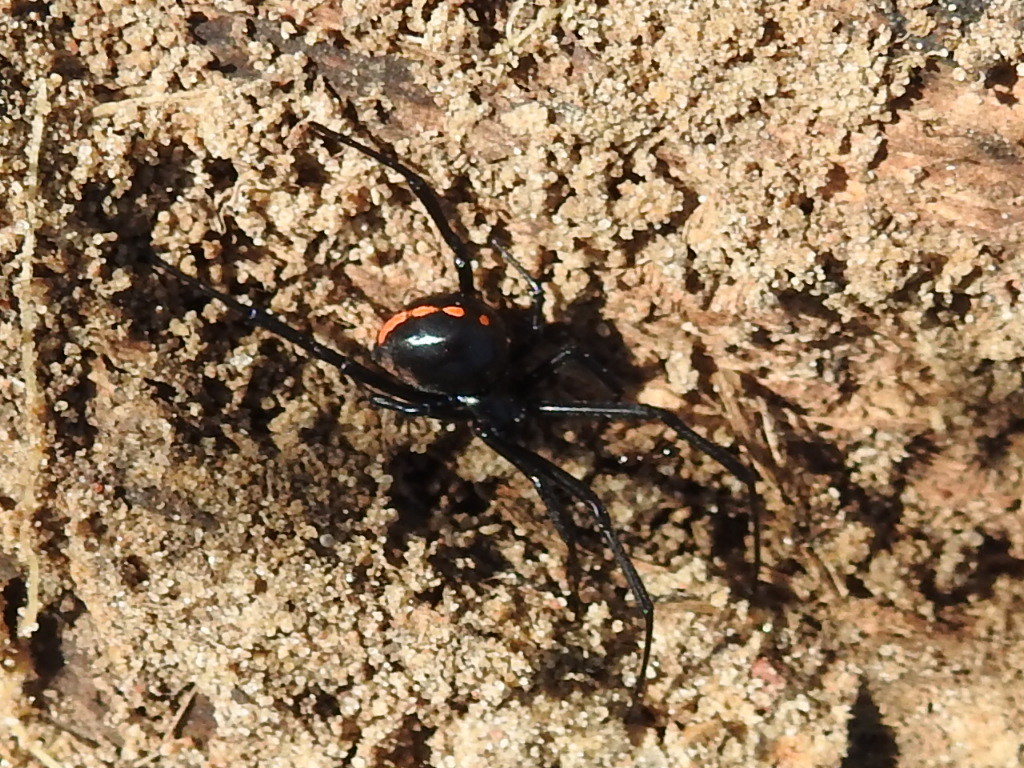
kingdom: Animalia
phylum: Arthropoda
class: Arachnida
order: Araneae
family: Theridiidae
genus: Latrodectus
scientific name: Latrodectus mactans
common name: Cobweb spiders
